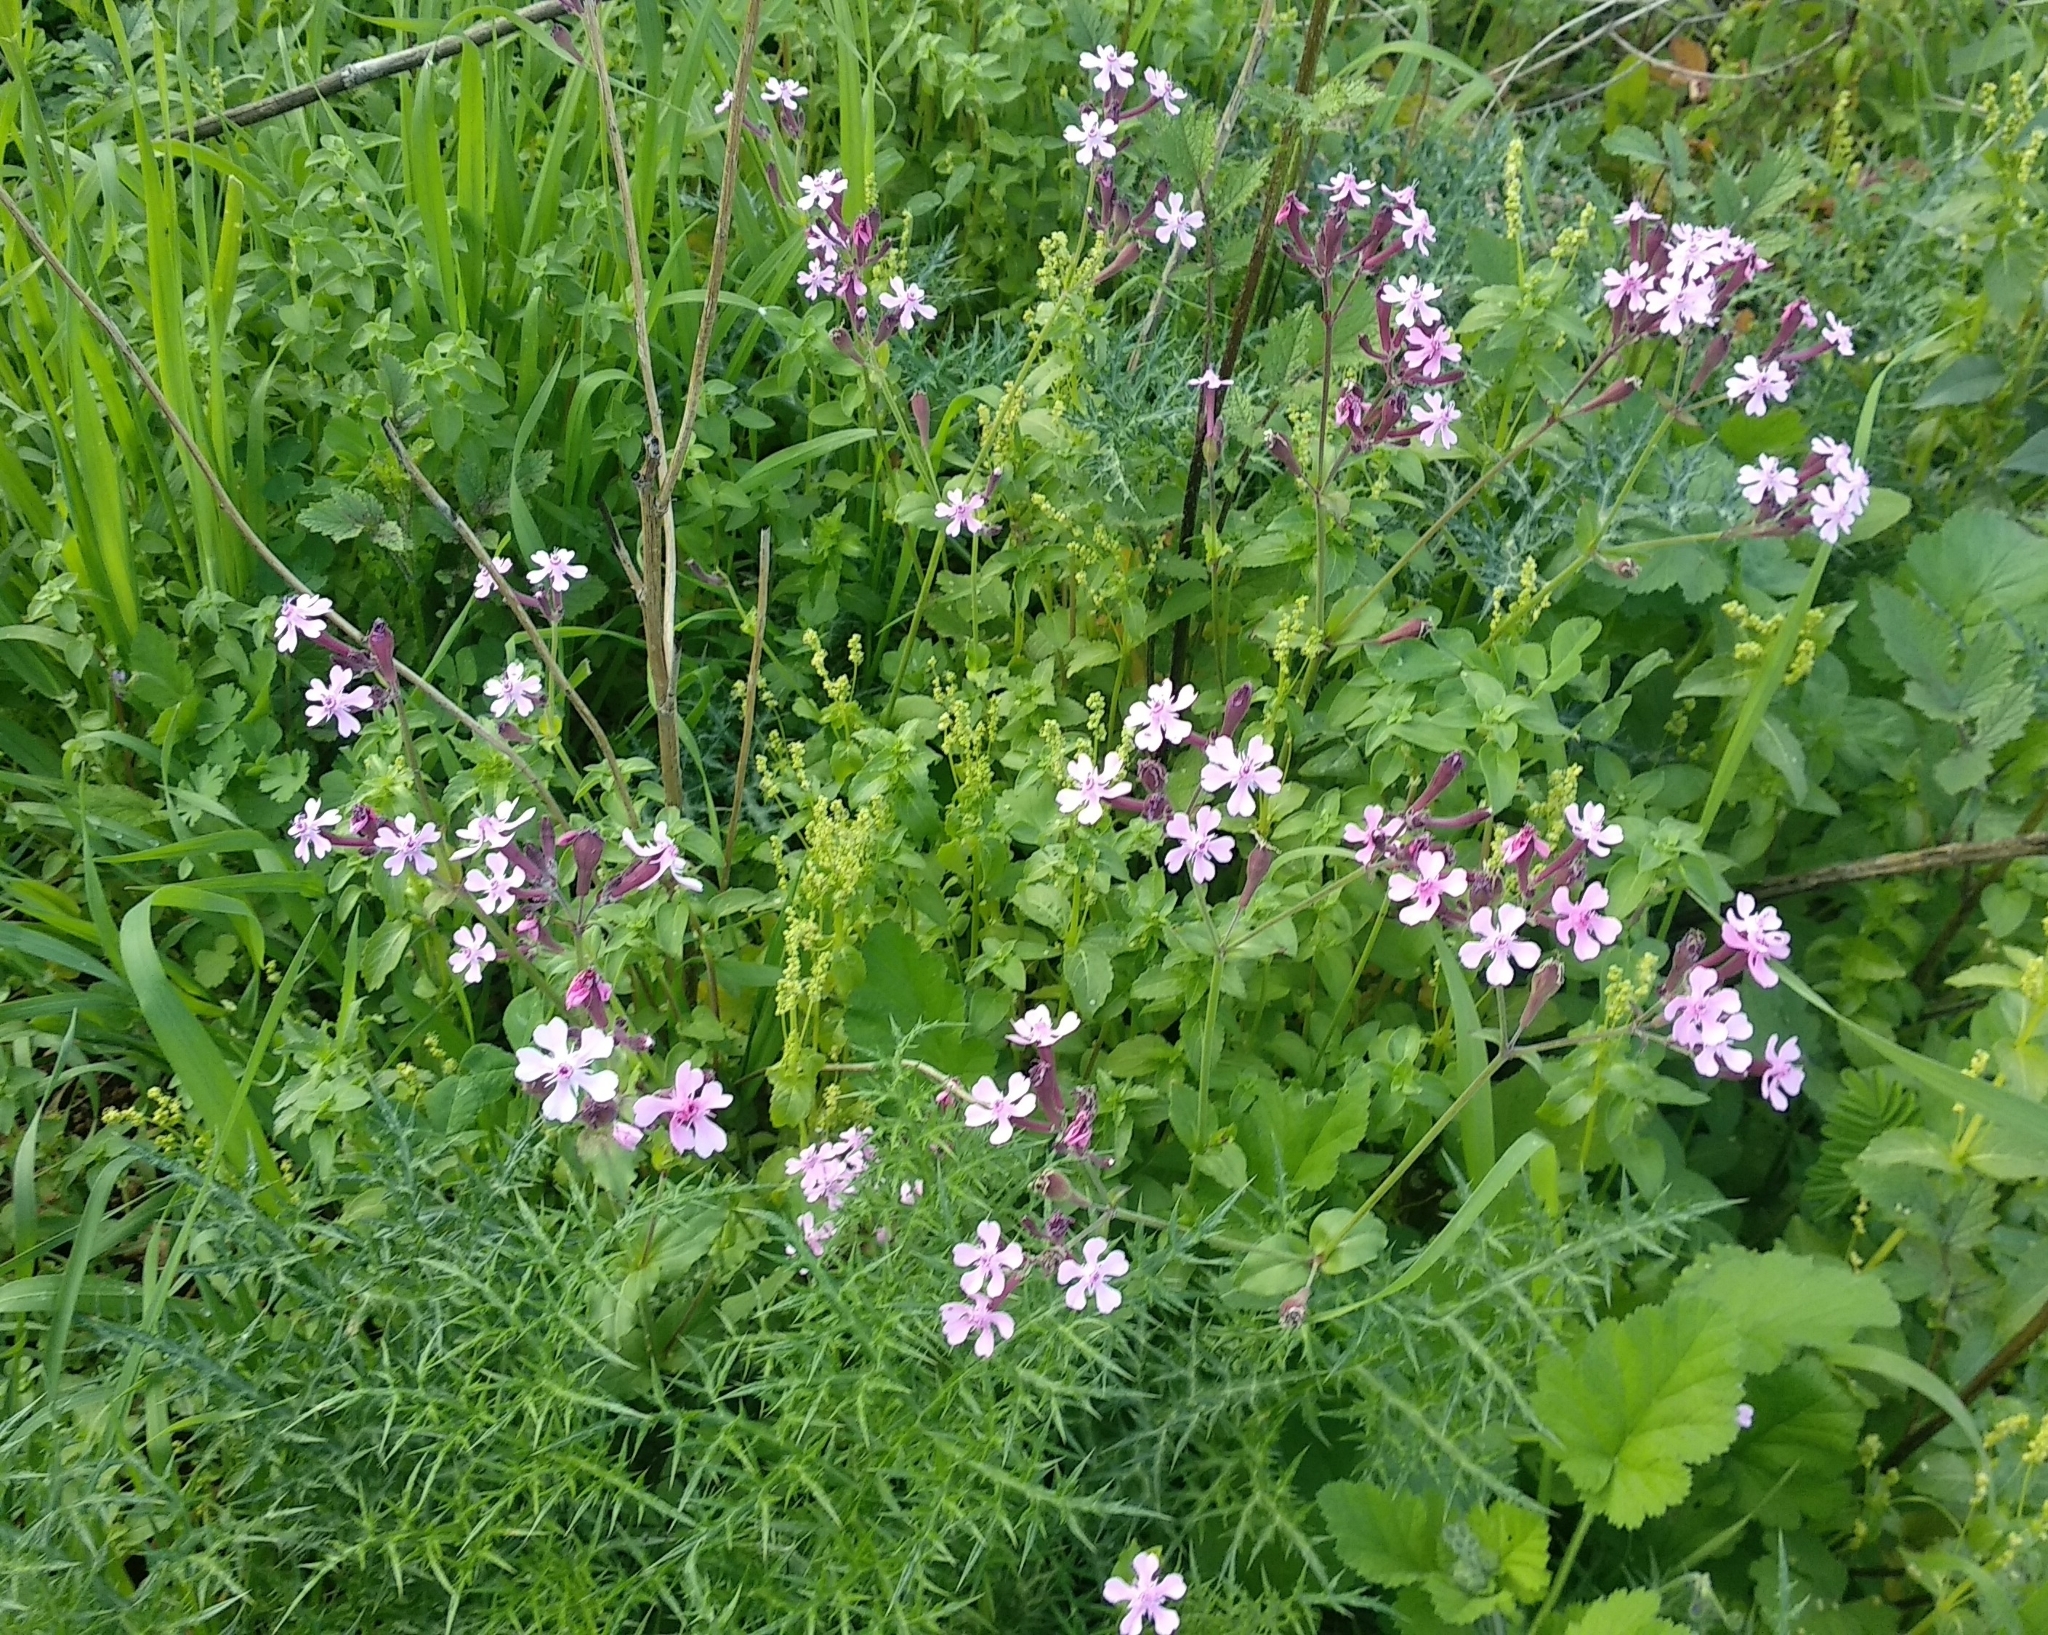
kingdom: Plantae
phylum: Tracheophyta
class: Magnoliopsida
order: Caryophyllales
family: Caryophyllaceae
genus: Silene
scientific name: Silene aegyptiaca
